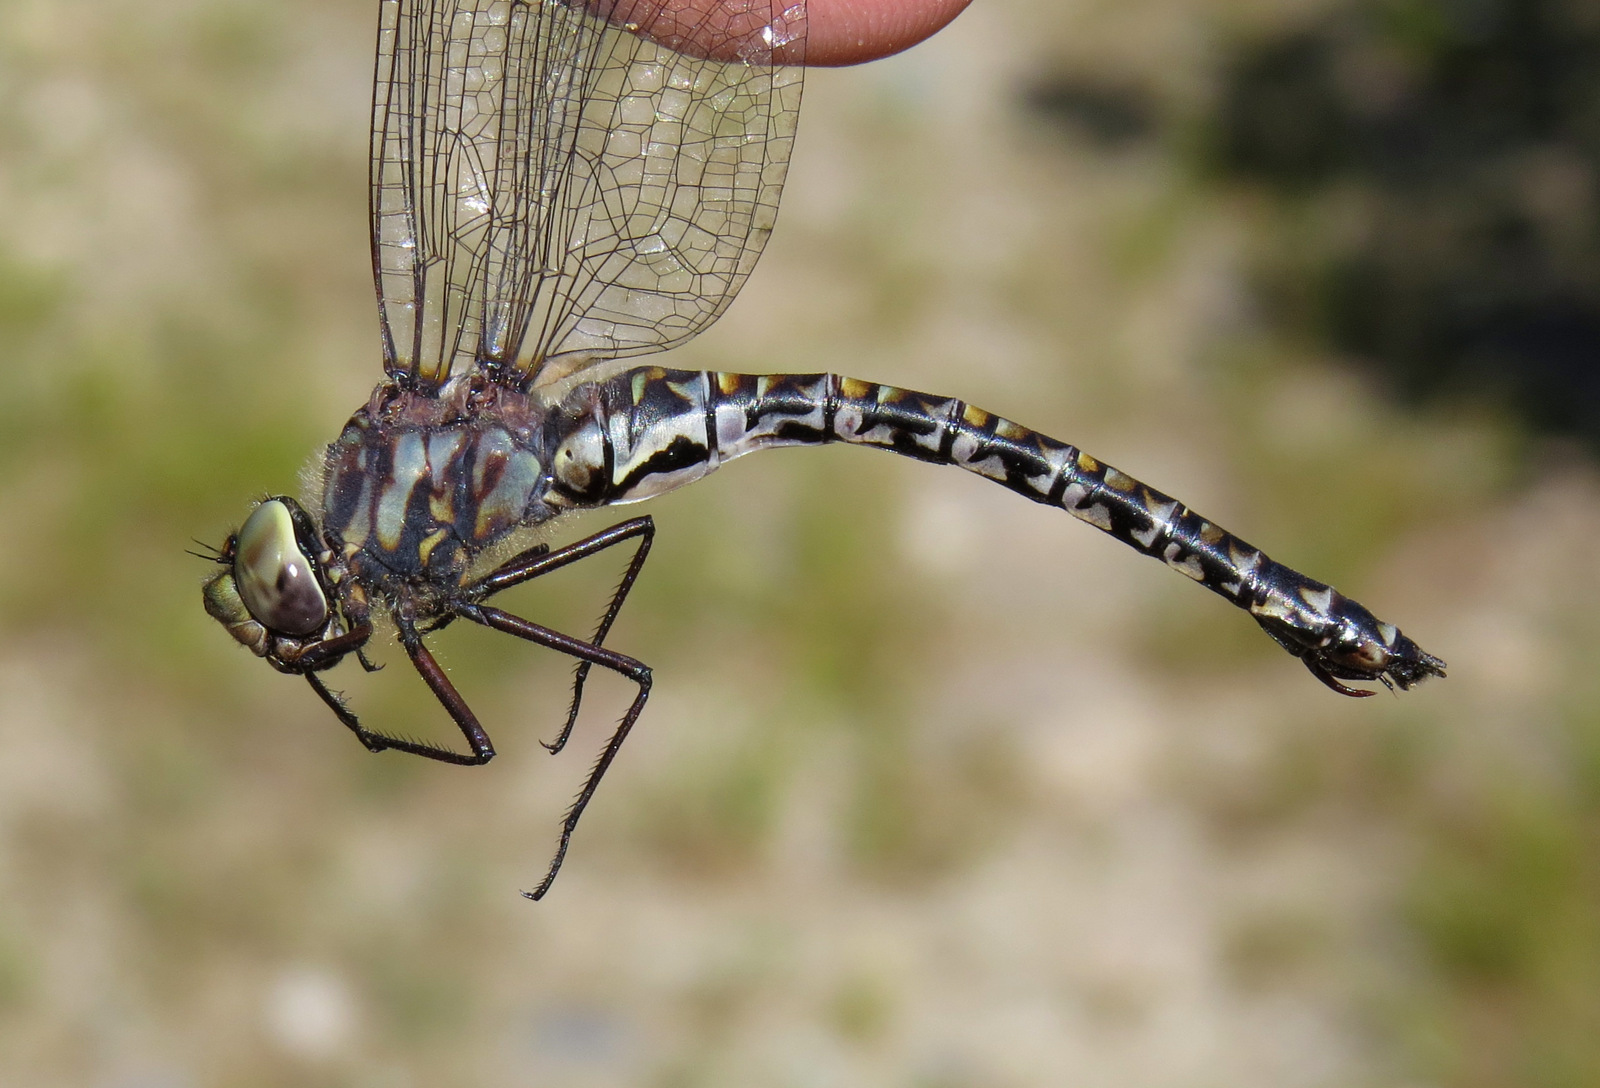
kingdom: Animalia
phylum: Arthropoda
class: Insecta
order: Odonata
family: Aeshnidae
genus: Gomphaeschna
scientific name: Gomphaeschna furcillata
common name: Harlequin darner
